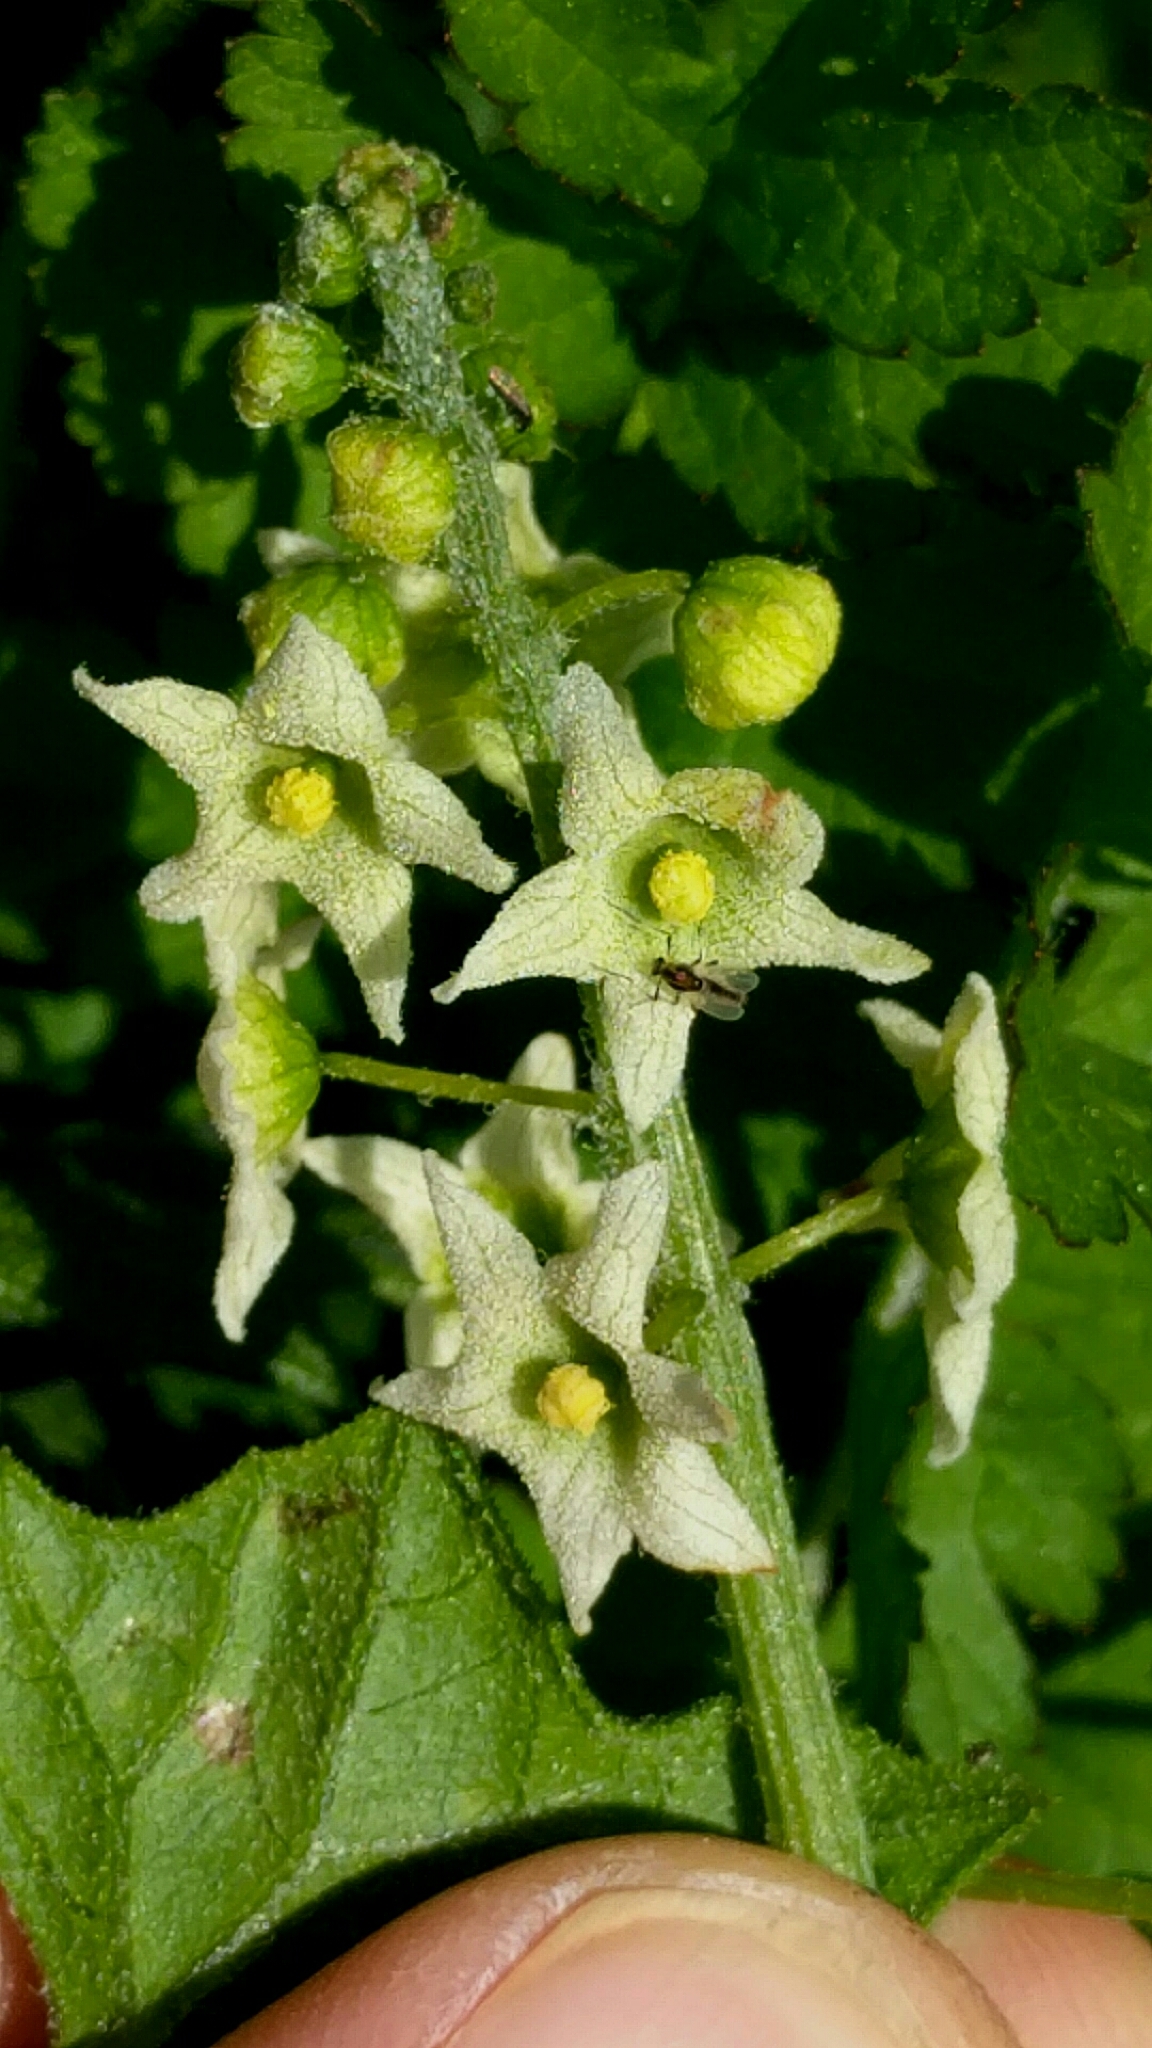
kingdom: Plantae
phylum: Tracheophyta
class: Magnoliopsida
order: Cucurbitales
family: Cucurbitaceae
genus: Marah
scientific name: Marah fabacea
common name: California manroot
